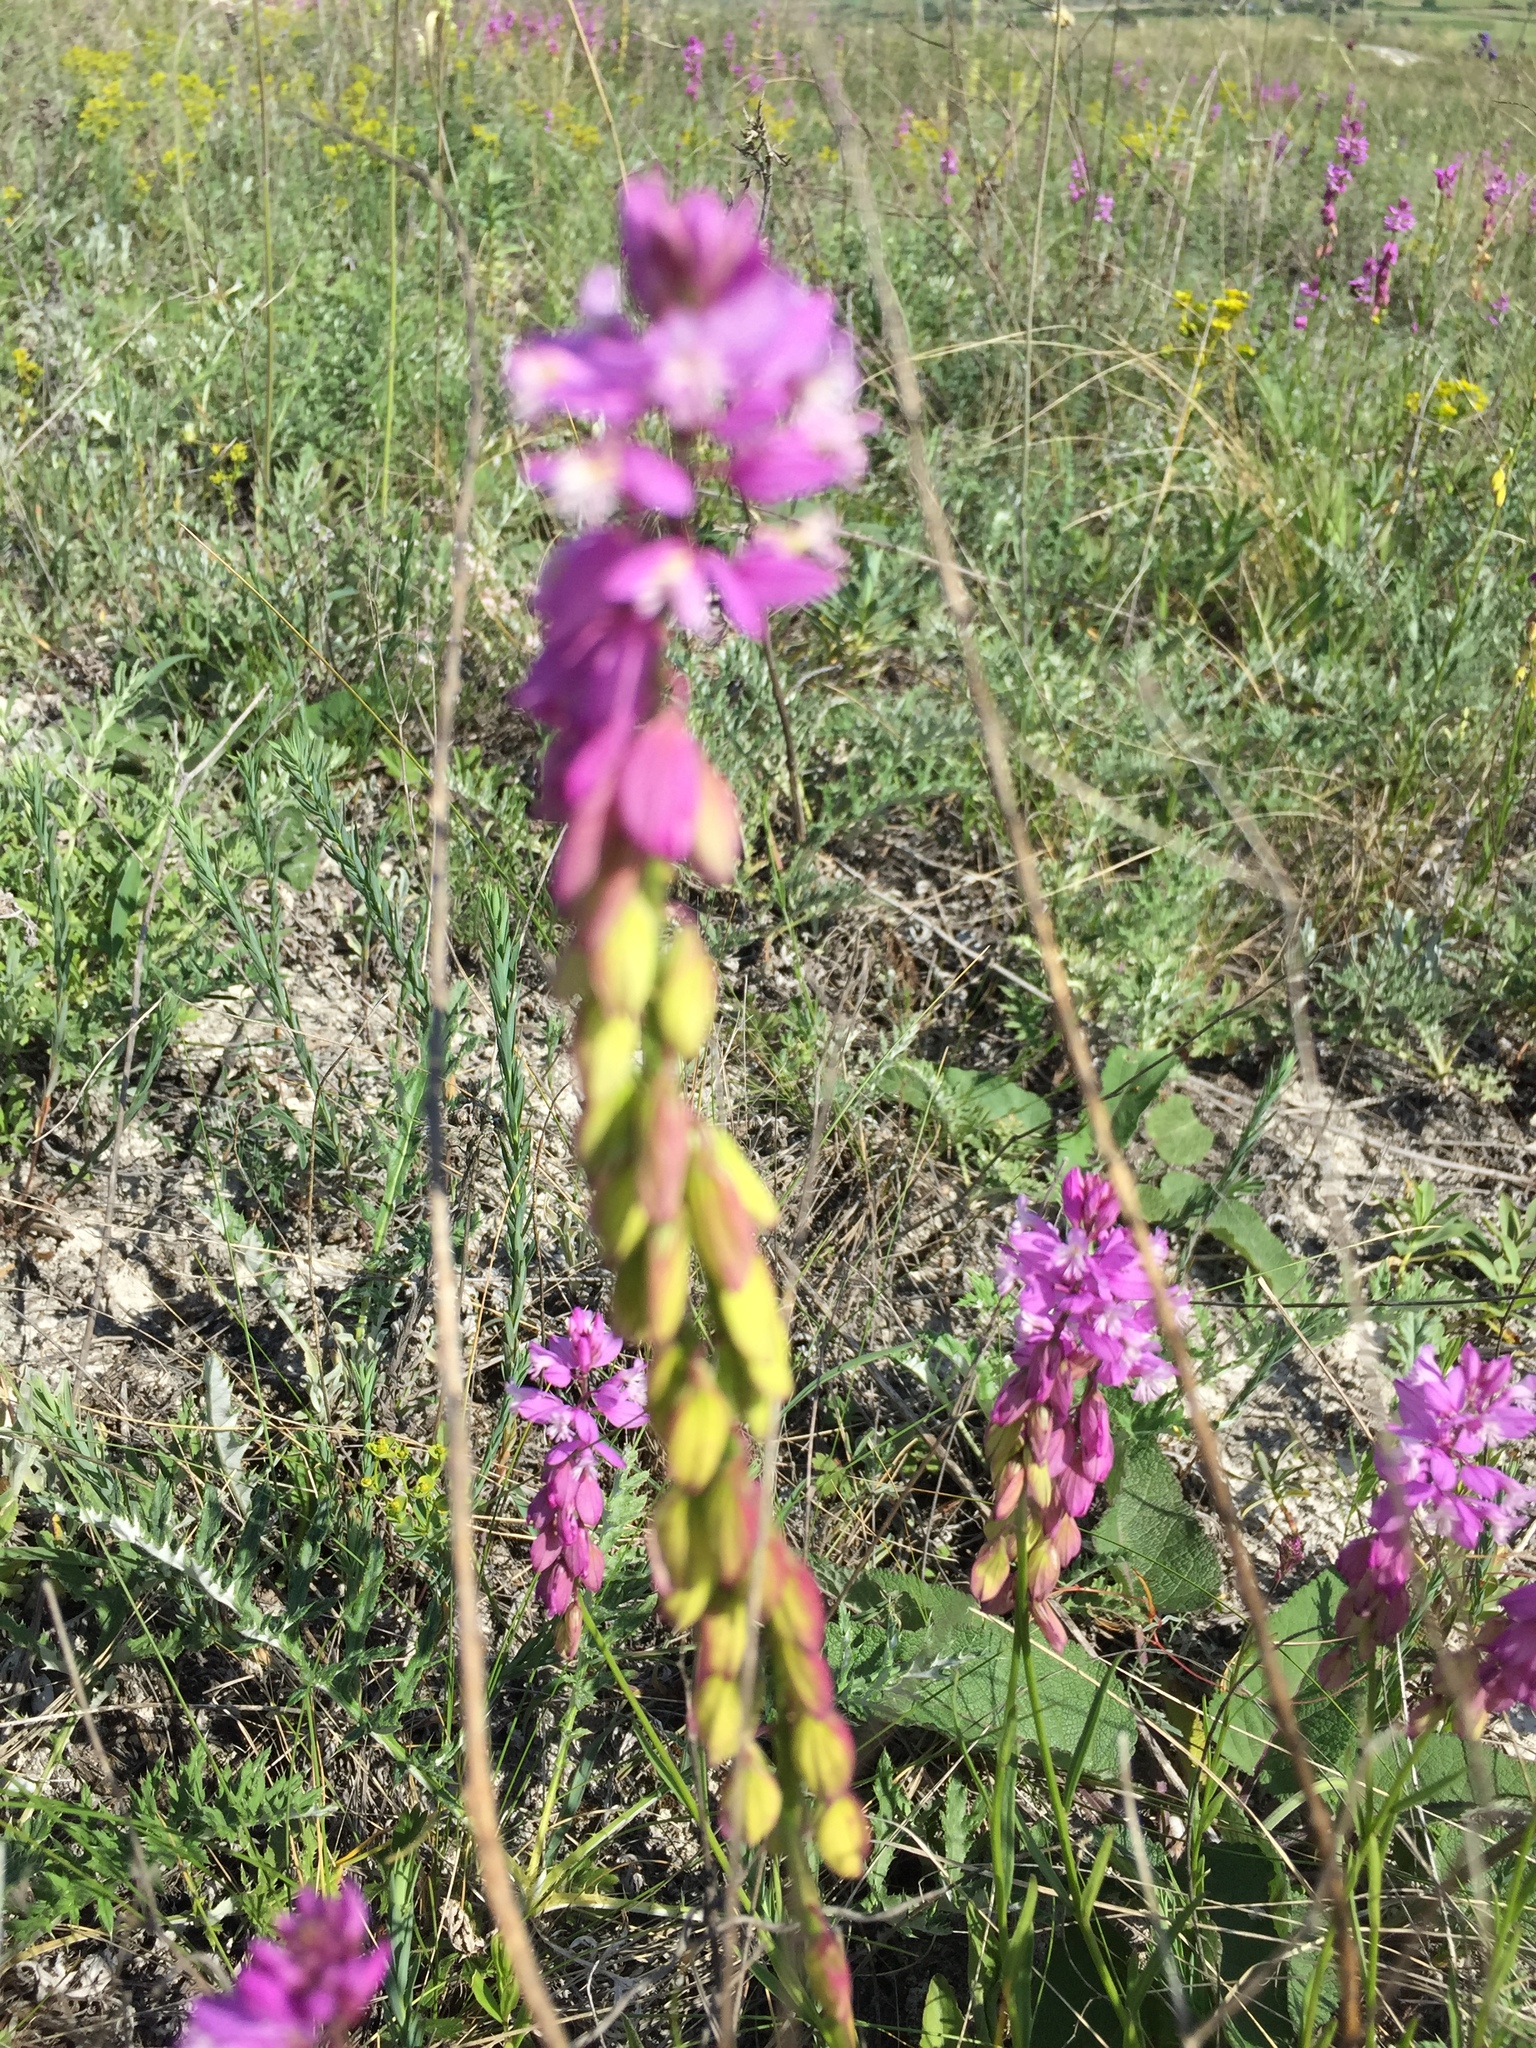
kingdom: Plantae
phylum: Tracheophyta
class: Magnoliopsida
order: Fabales
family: Polygalaceae
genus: Polygala
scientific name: Polygala nicaeensis
